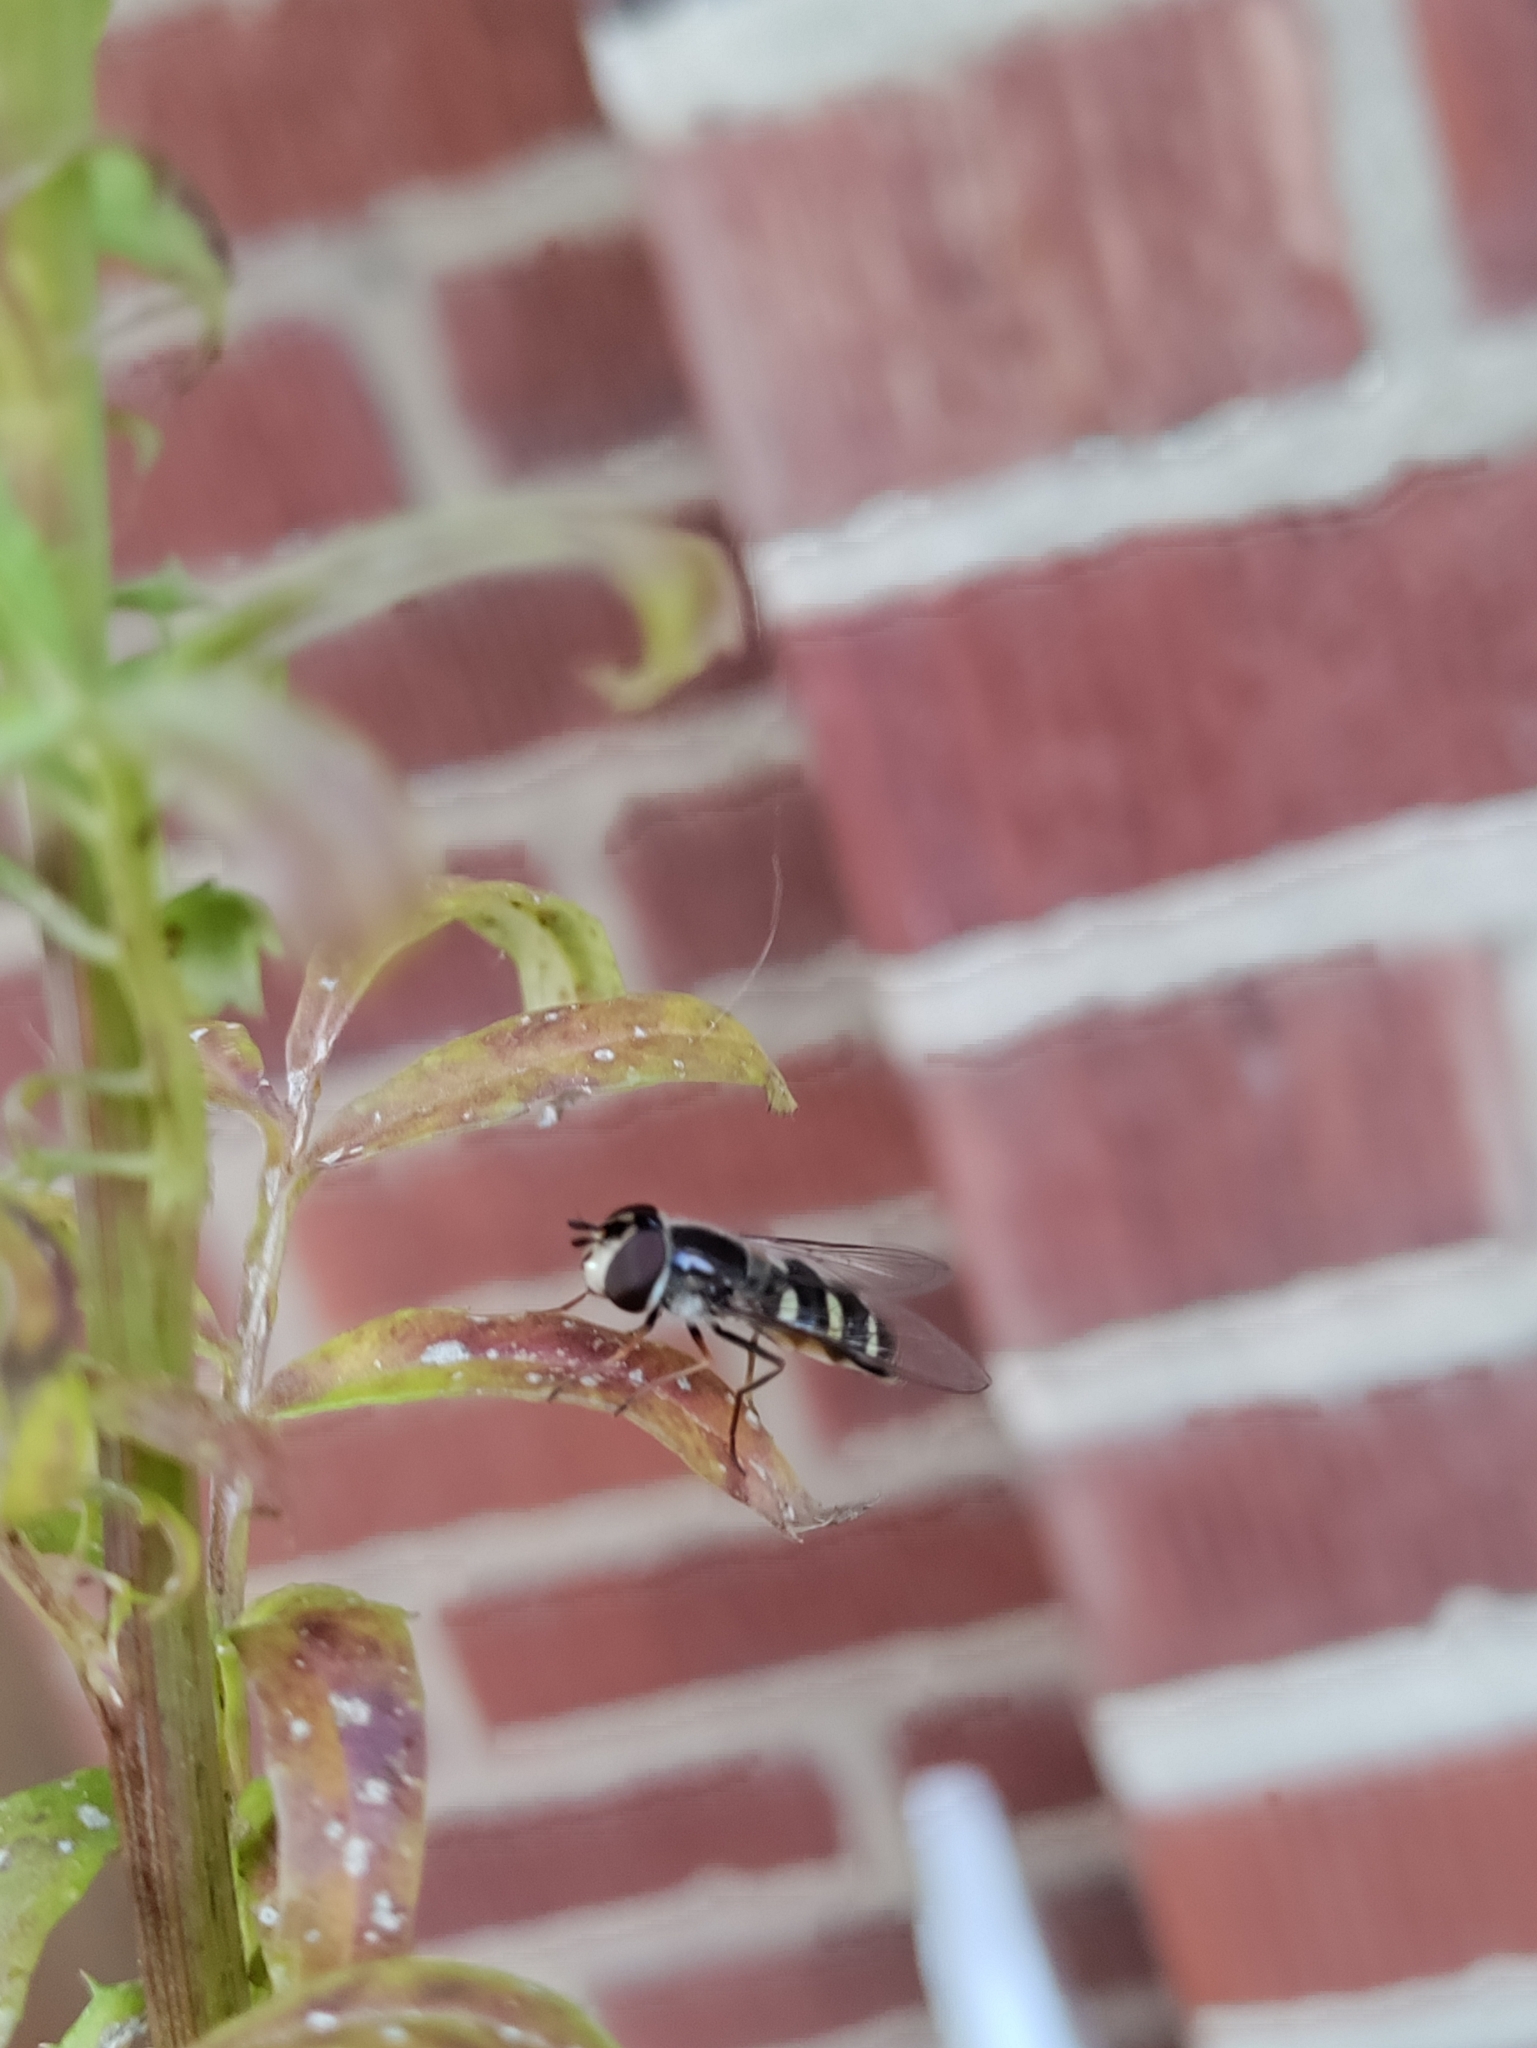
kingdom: Animalia
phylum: Arthropoda
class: Insecta
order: Diptera
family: Syrphidae
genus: Eupeodes
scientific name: Eupeodes perplexus
